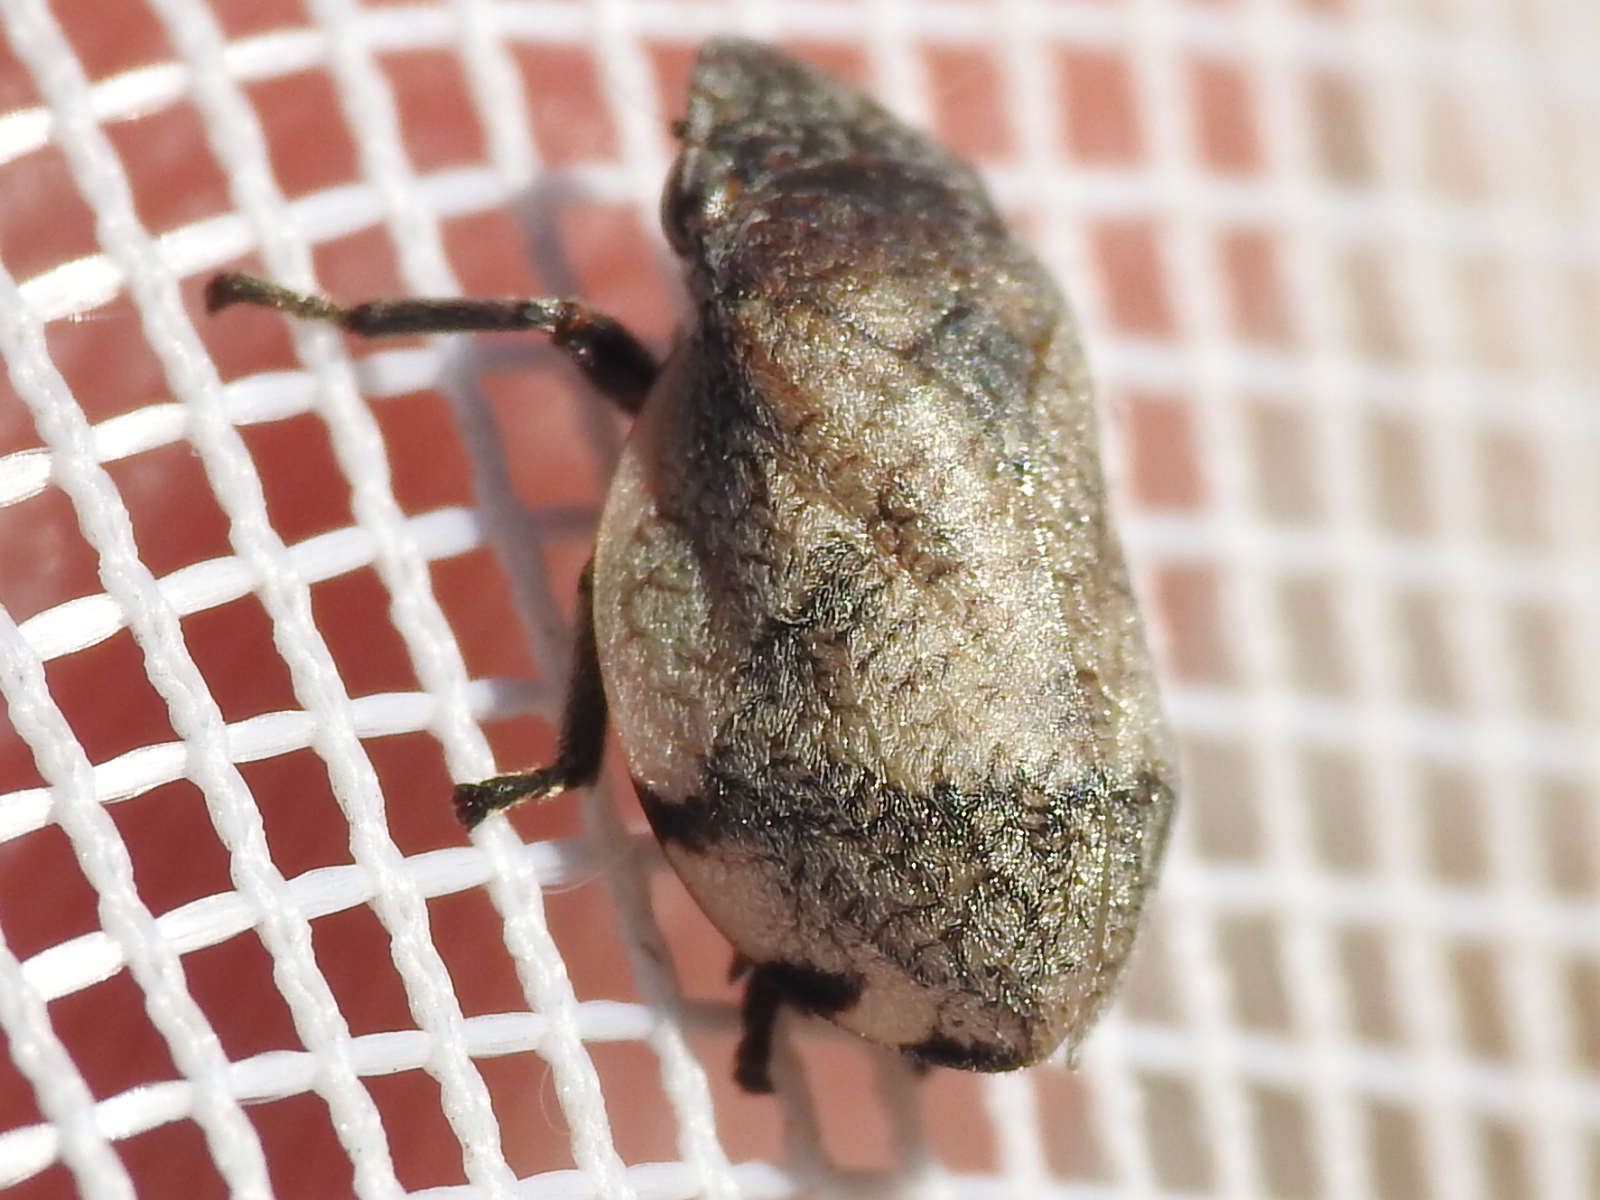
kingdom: Animalia
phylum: Arthropoda
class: Insecta
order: Hemiptera
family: Aphrophoridae
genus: Lepyronia
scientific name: Lepyronia gibbosa
